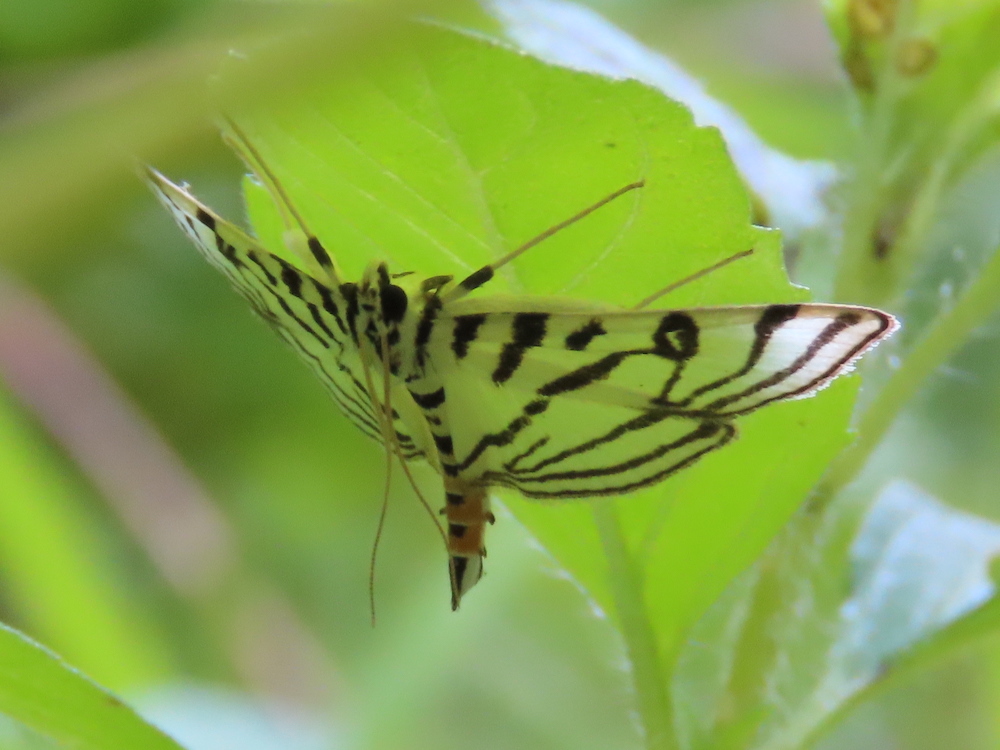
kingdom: Animalia
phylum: Arthropoda
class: Insecta
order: Lepidoptera
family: Crambidae
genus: Conchylodes
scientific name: Conchylodes ovulalis
